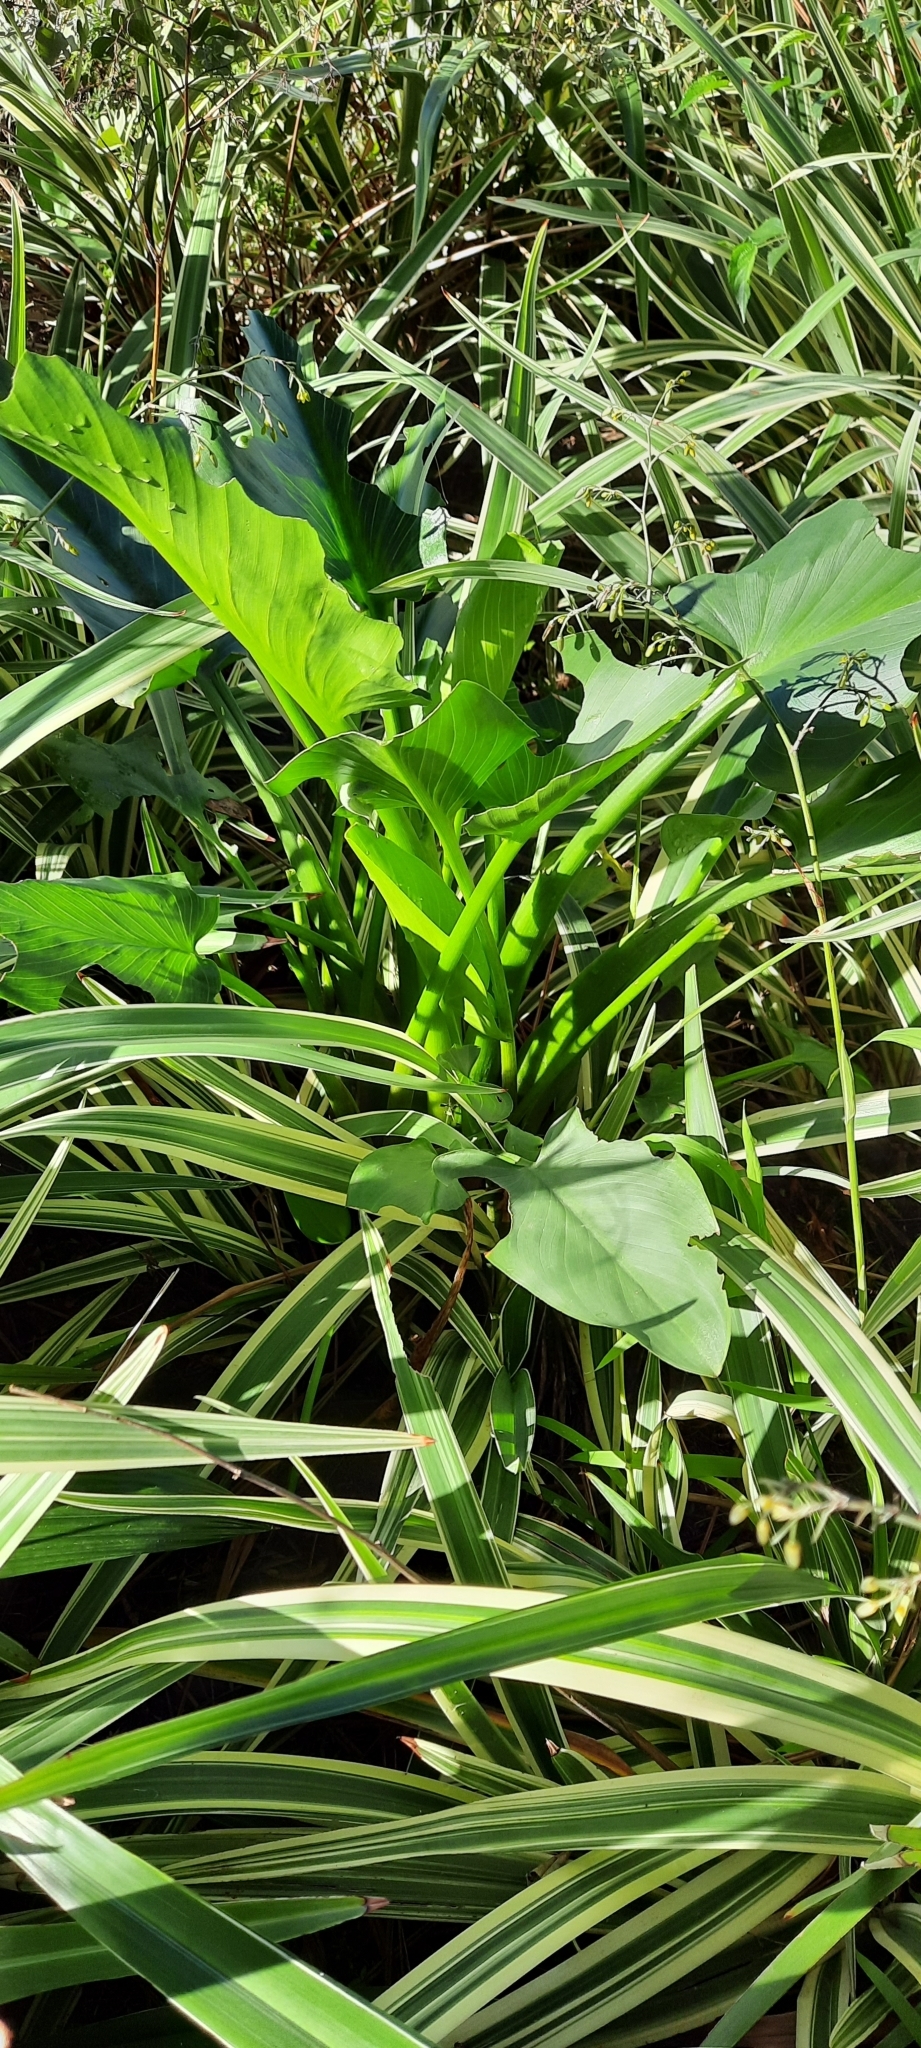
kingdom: Plantae
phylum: Tracheophyta
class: Liliopsida
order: Alismatales
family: Araceae
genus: Zantedeschia
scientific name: Zantedeschia aethiopica
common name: Altar-lily
